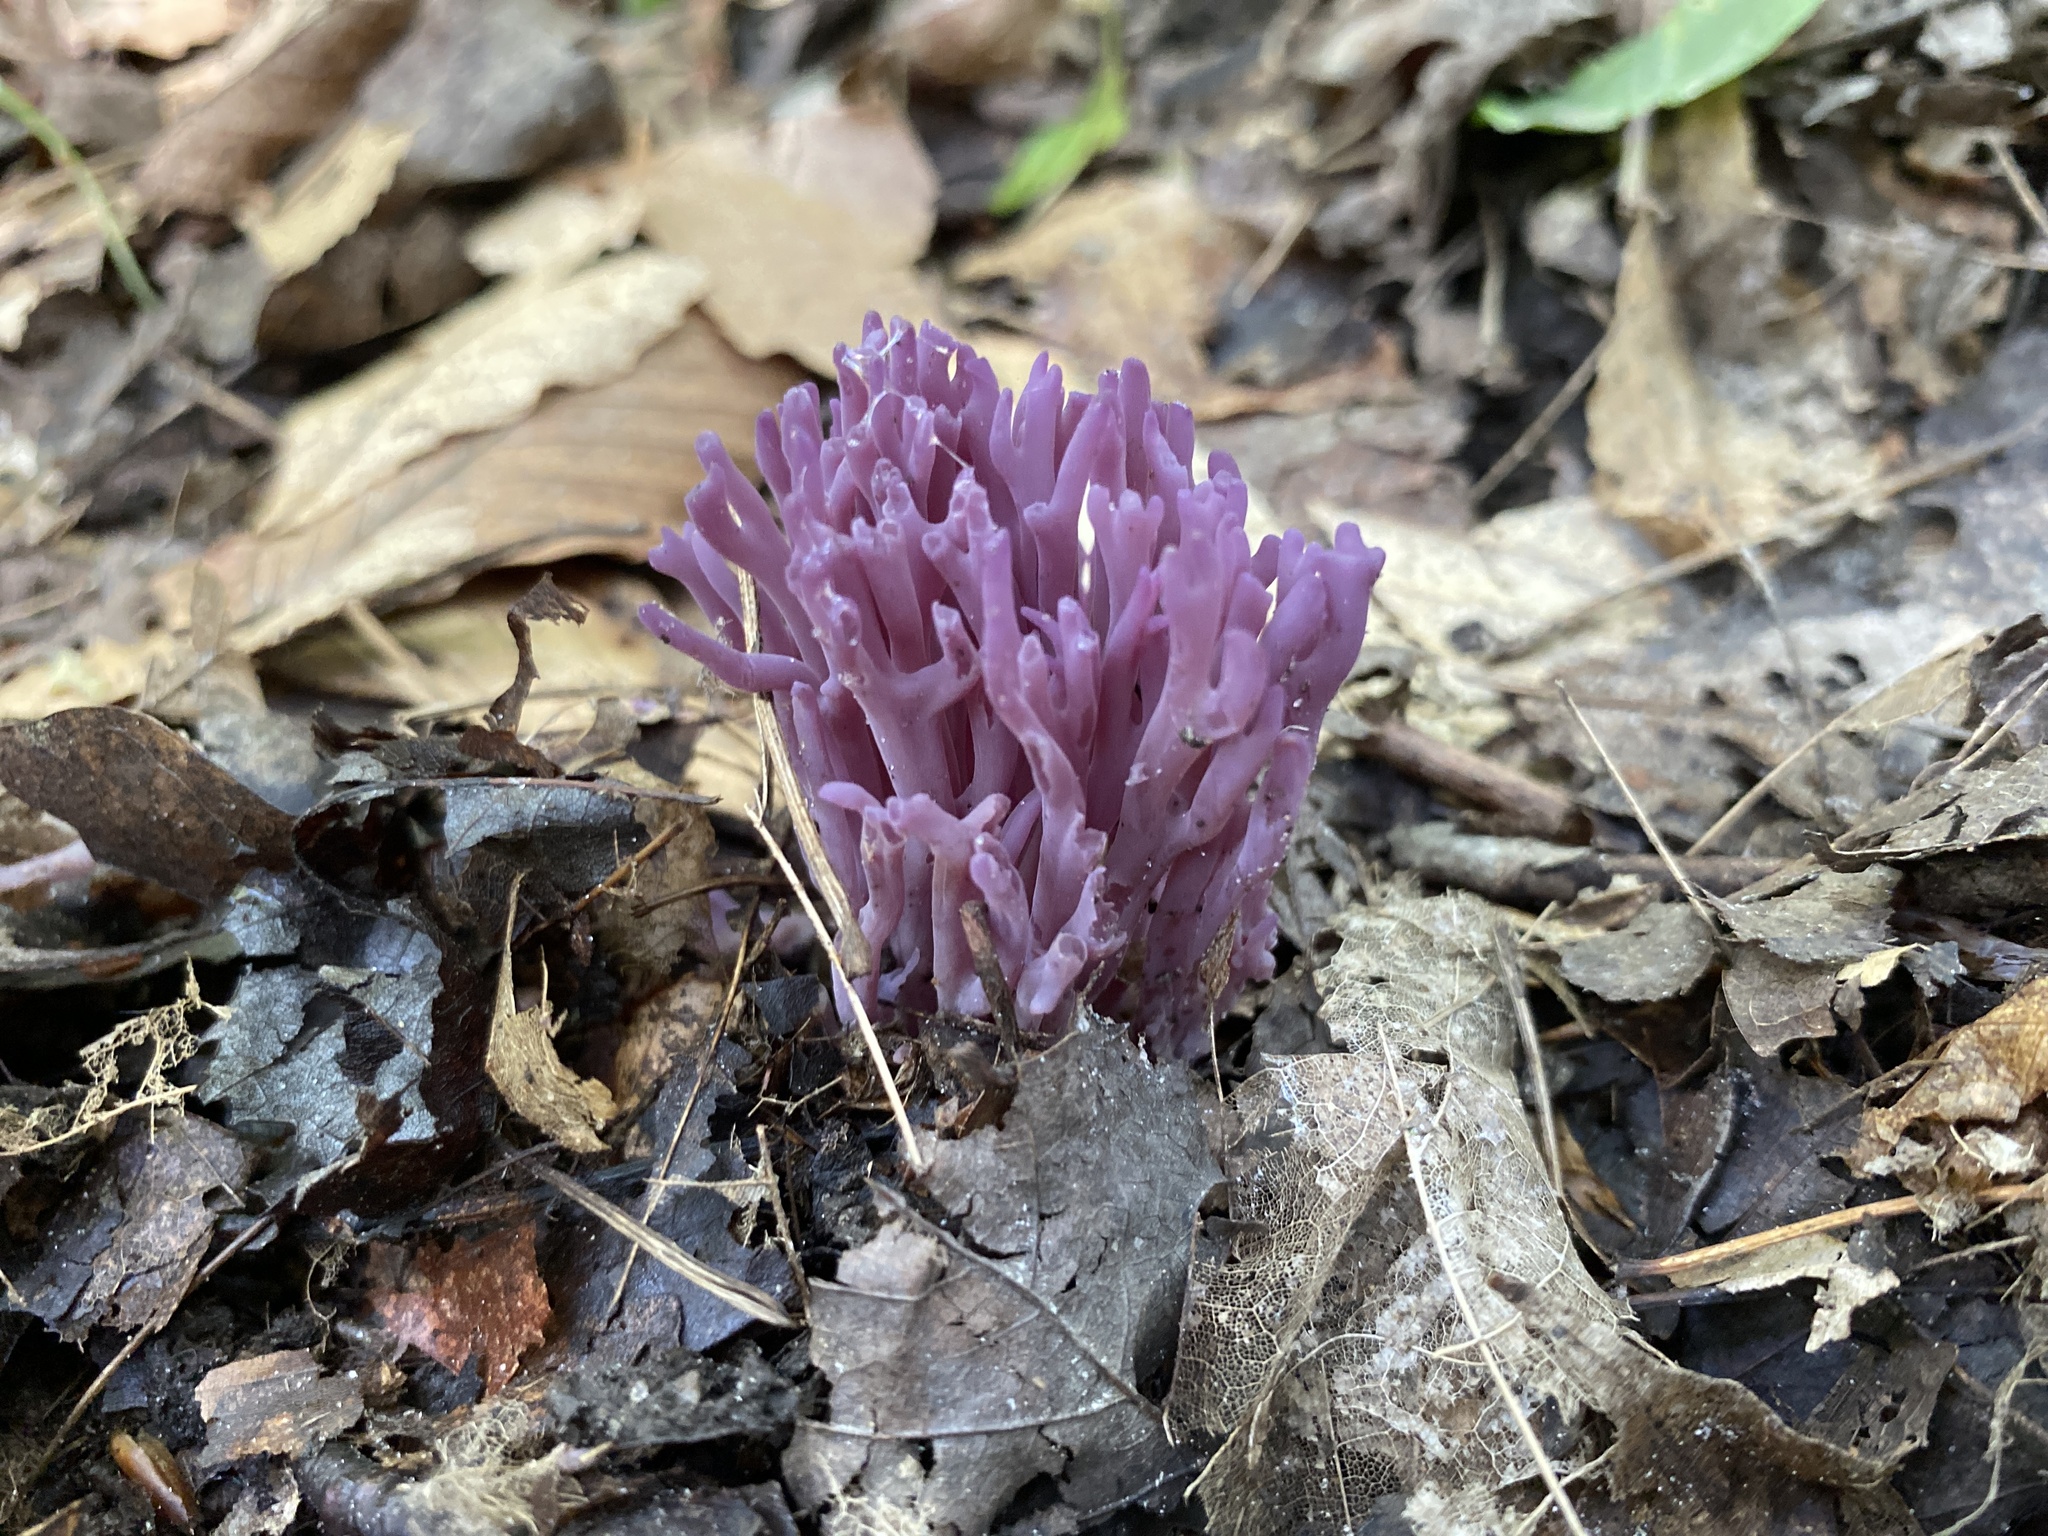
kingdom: Fungi
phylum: Basidiomycota
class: Agaricomycetes
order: Agaricales
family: Clavariaceae
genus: Clavaria
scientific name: Clavaria zollingeri
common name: Violet coral
